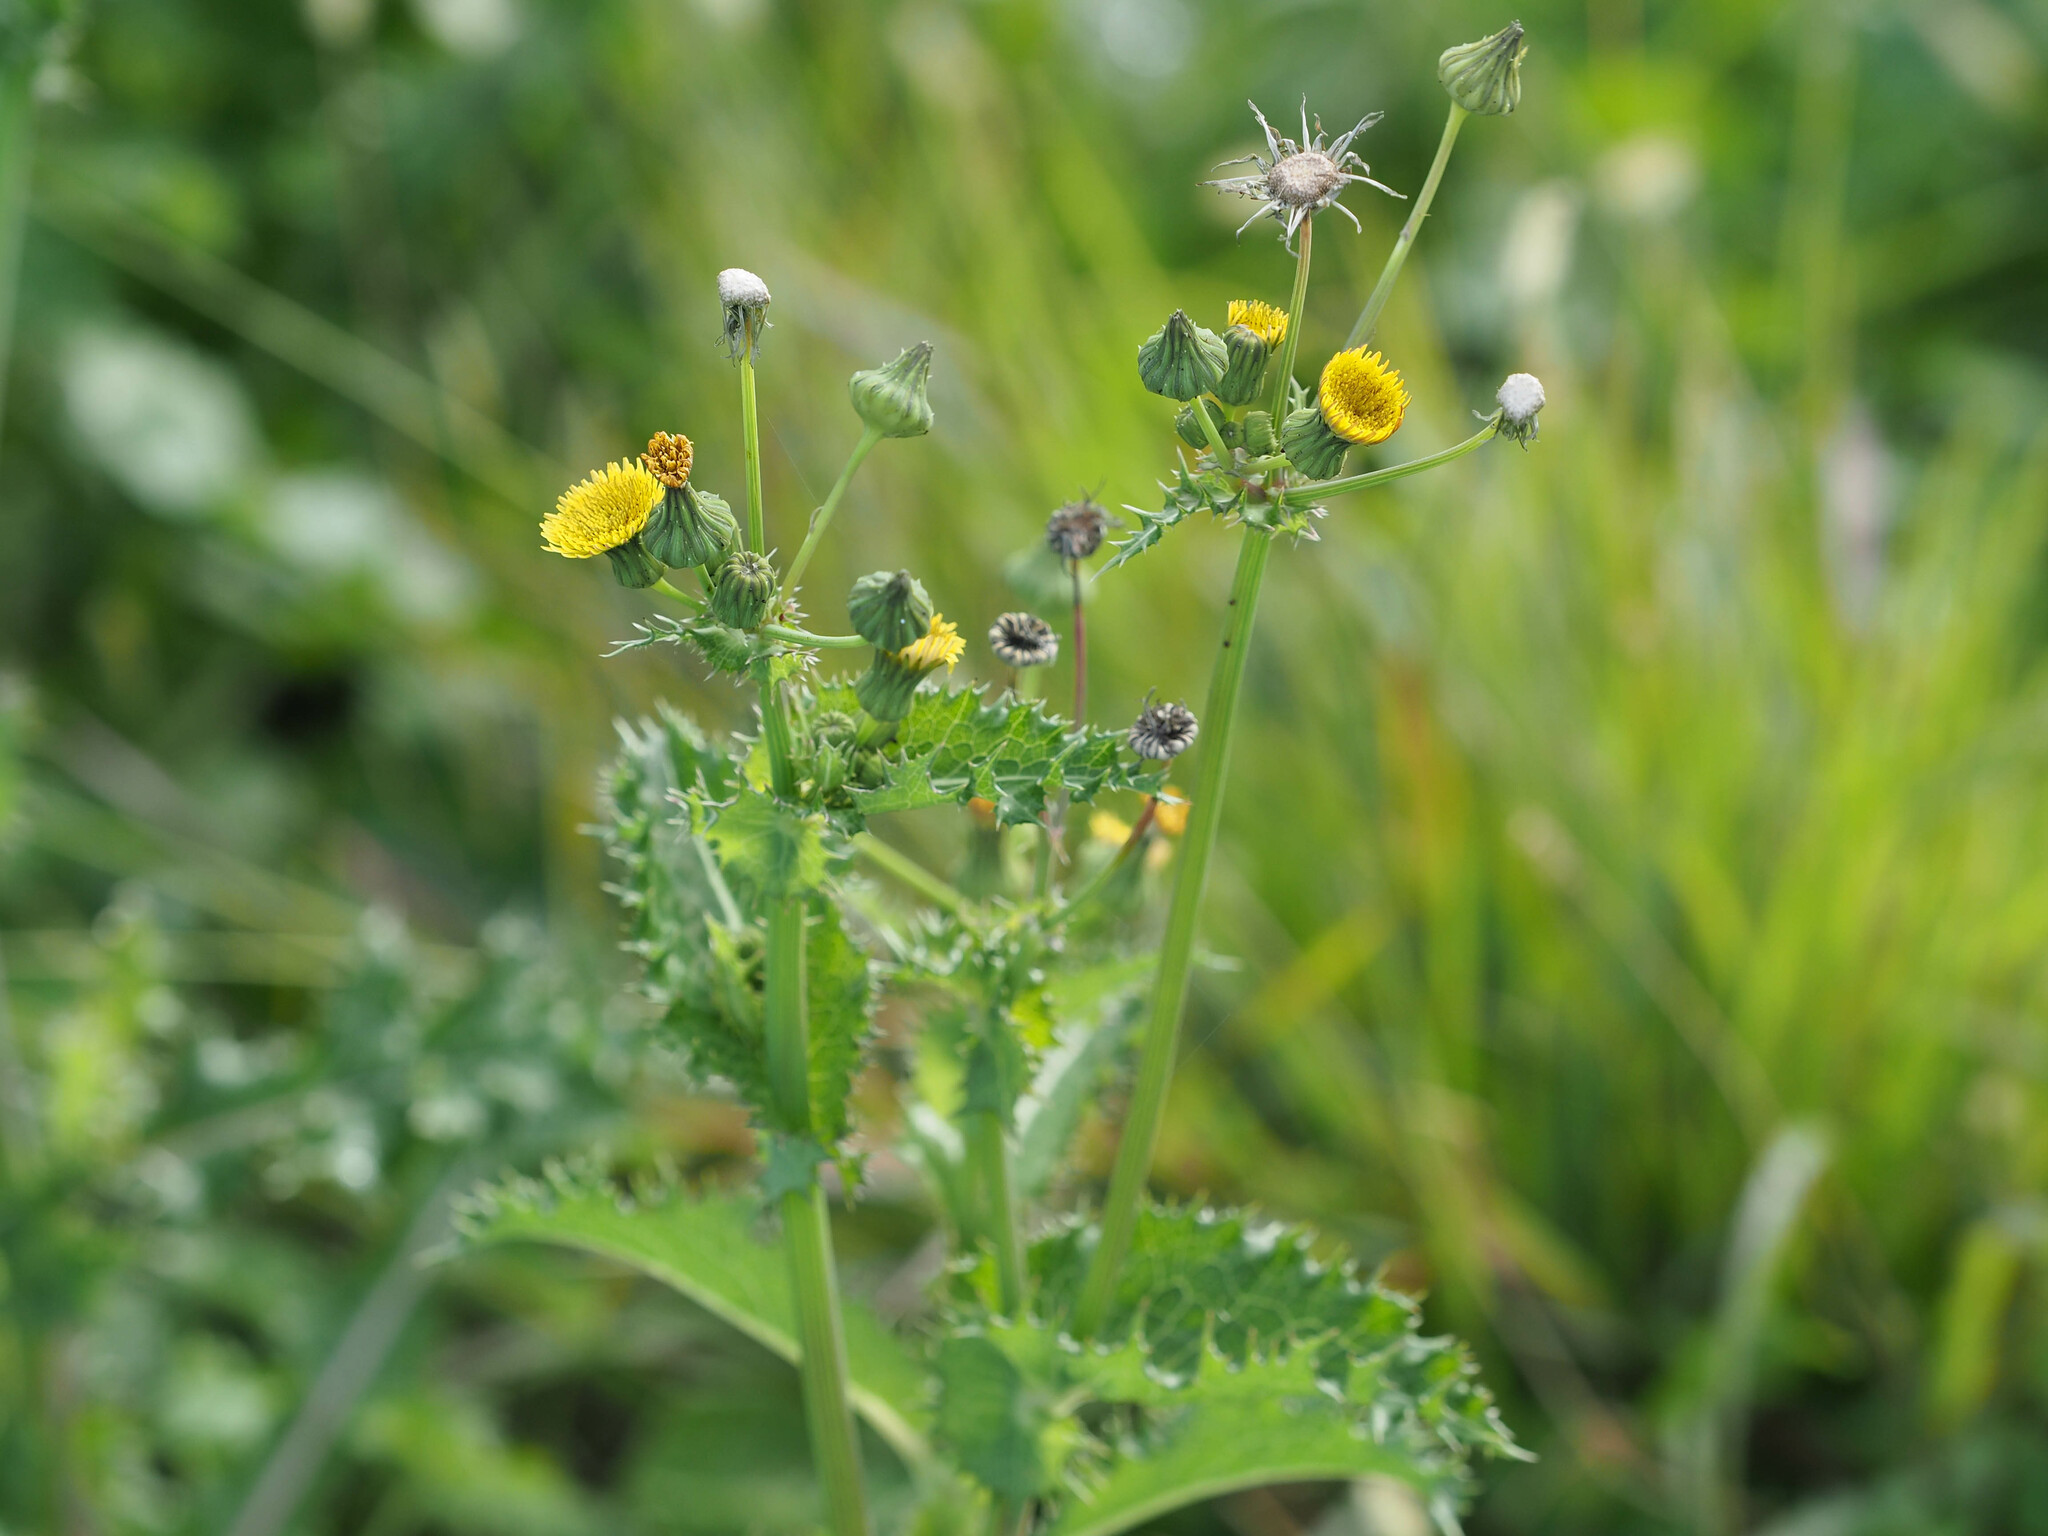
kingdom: Plantae
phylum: Tracheophyta
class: Magnoliopsida
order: Asterales
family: Asteraceae
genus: Sonchus
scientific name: Sonchus asper
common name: Prickly sow-thistle
